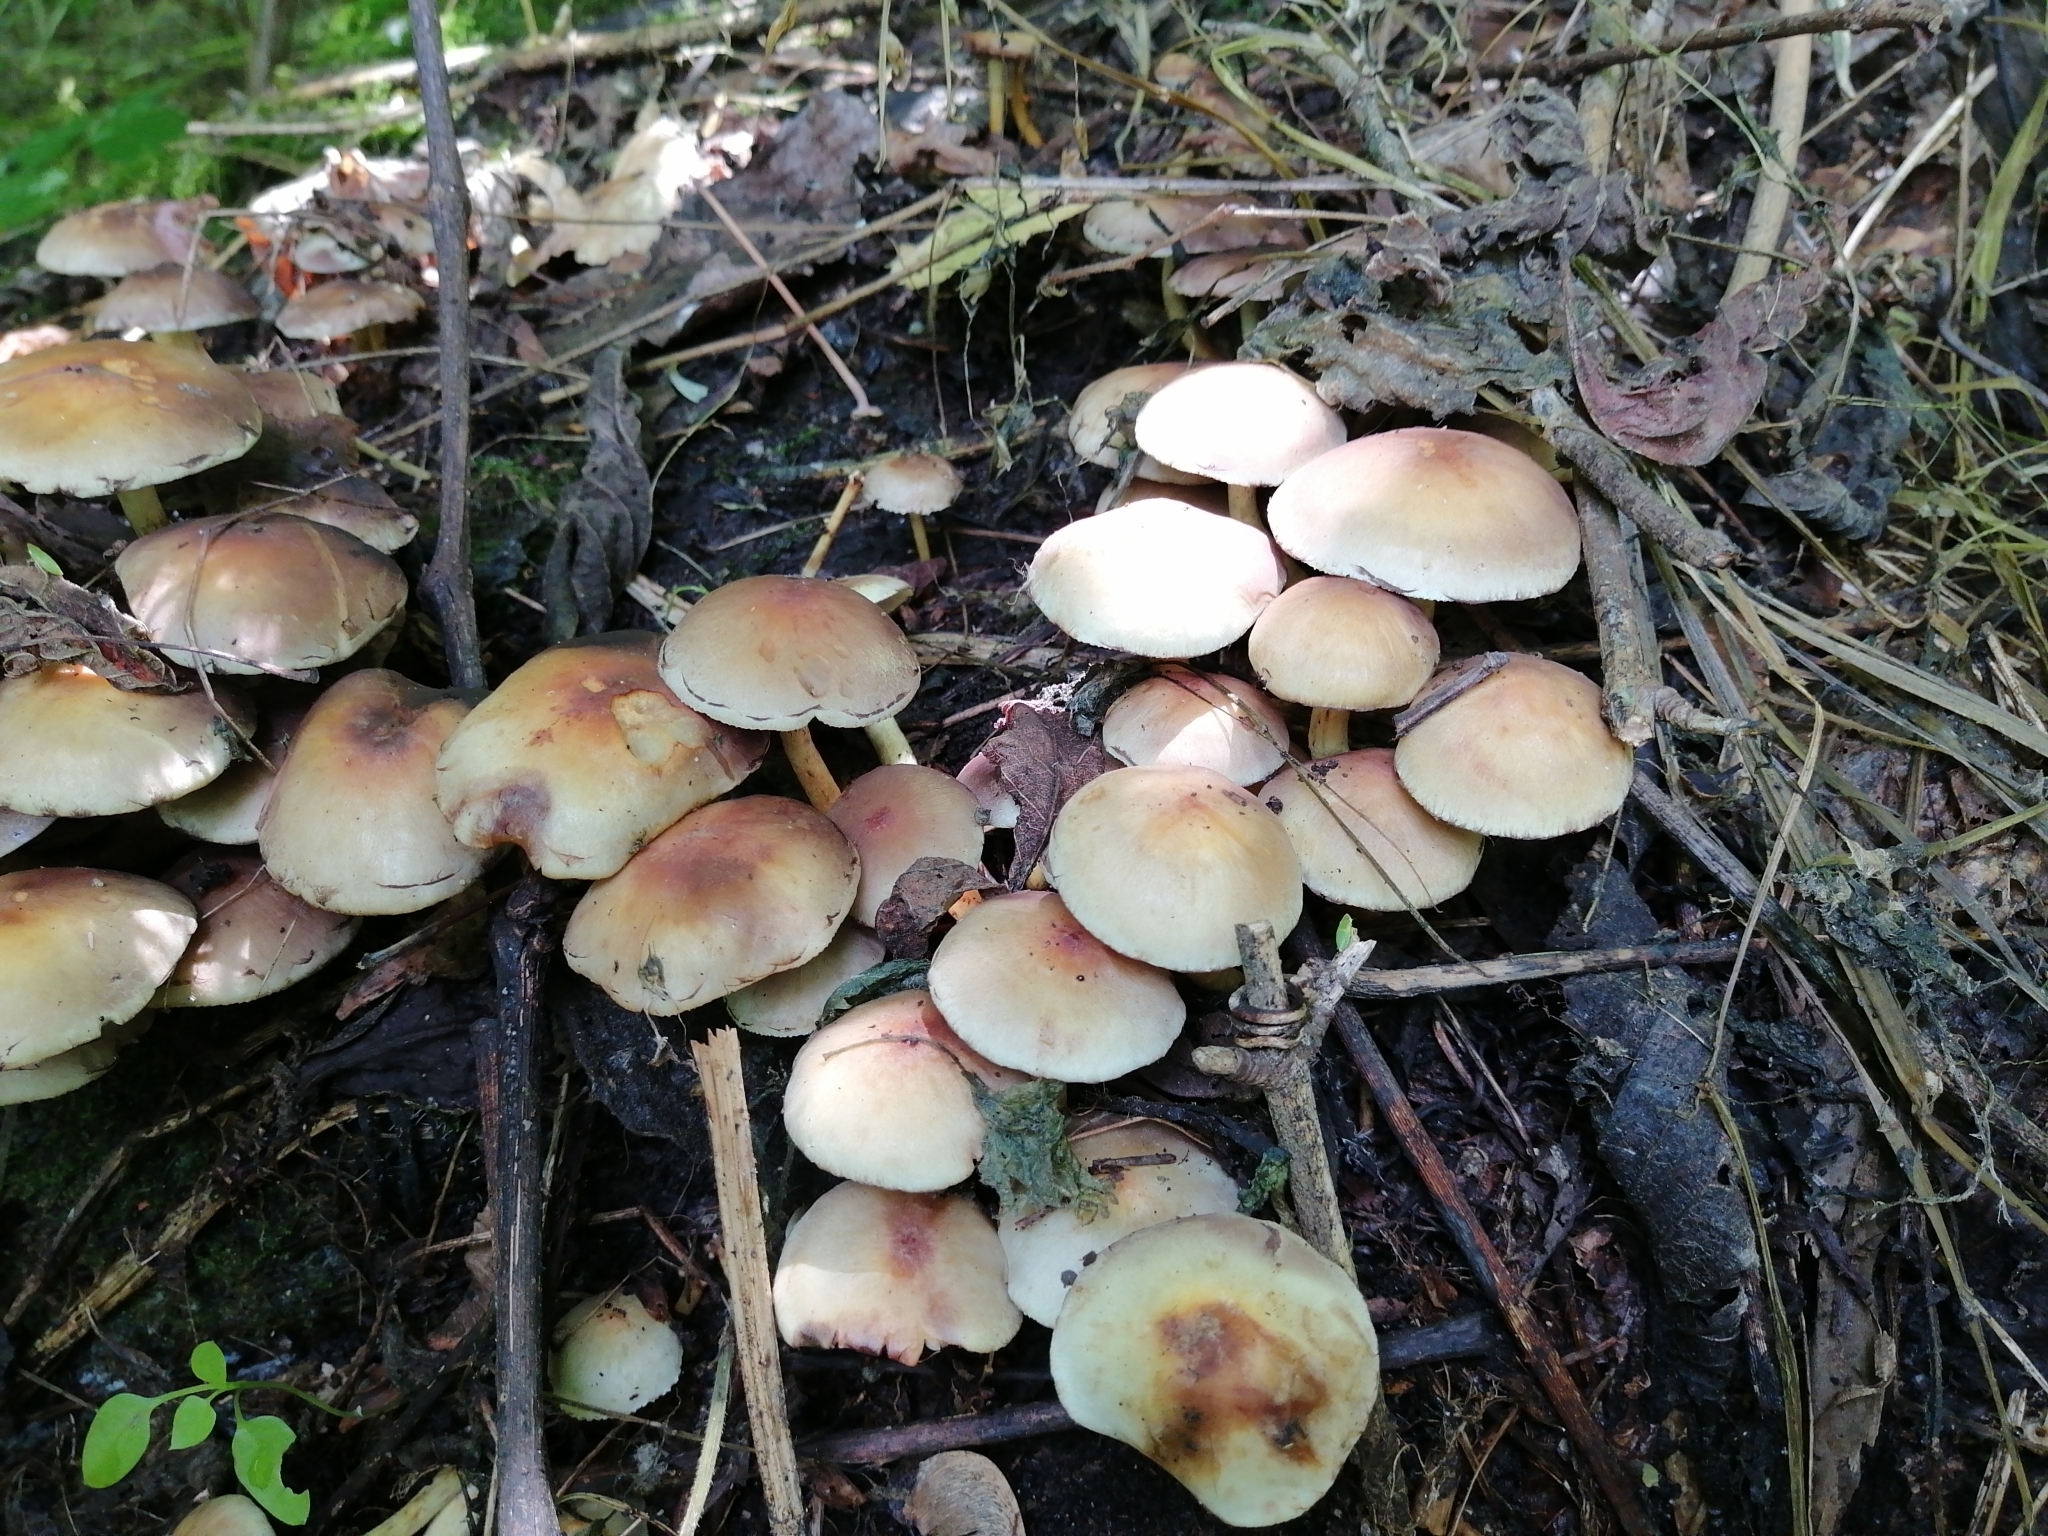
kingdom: Fungi
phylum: Basidiomycota
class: Agaricomycetes
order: Agaricales
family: Strophariaceae
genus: Hypholoma
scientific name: Hypholoma fasciculare
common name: Sulphur tuft
